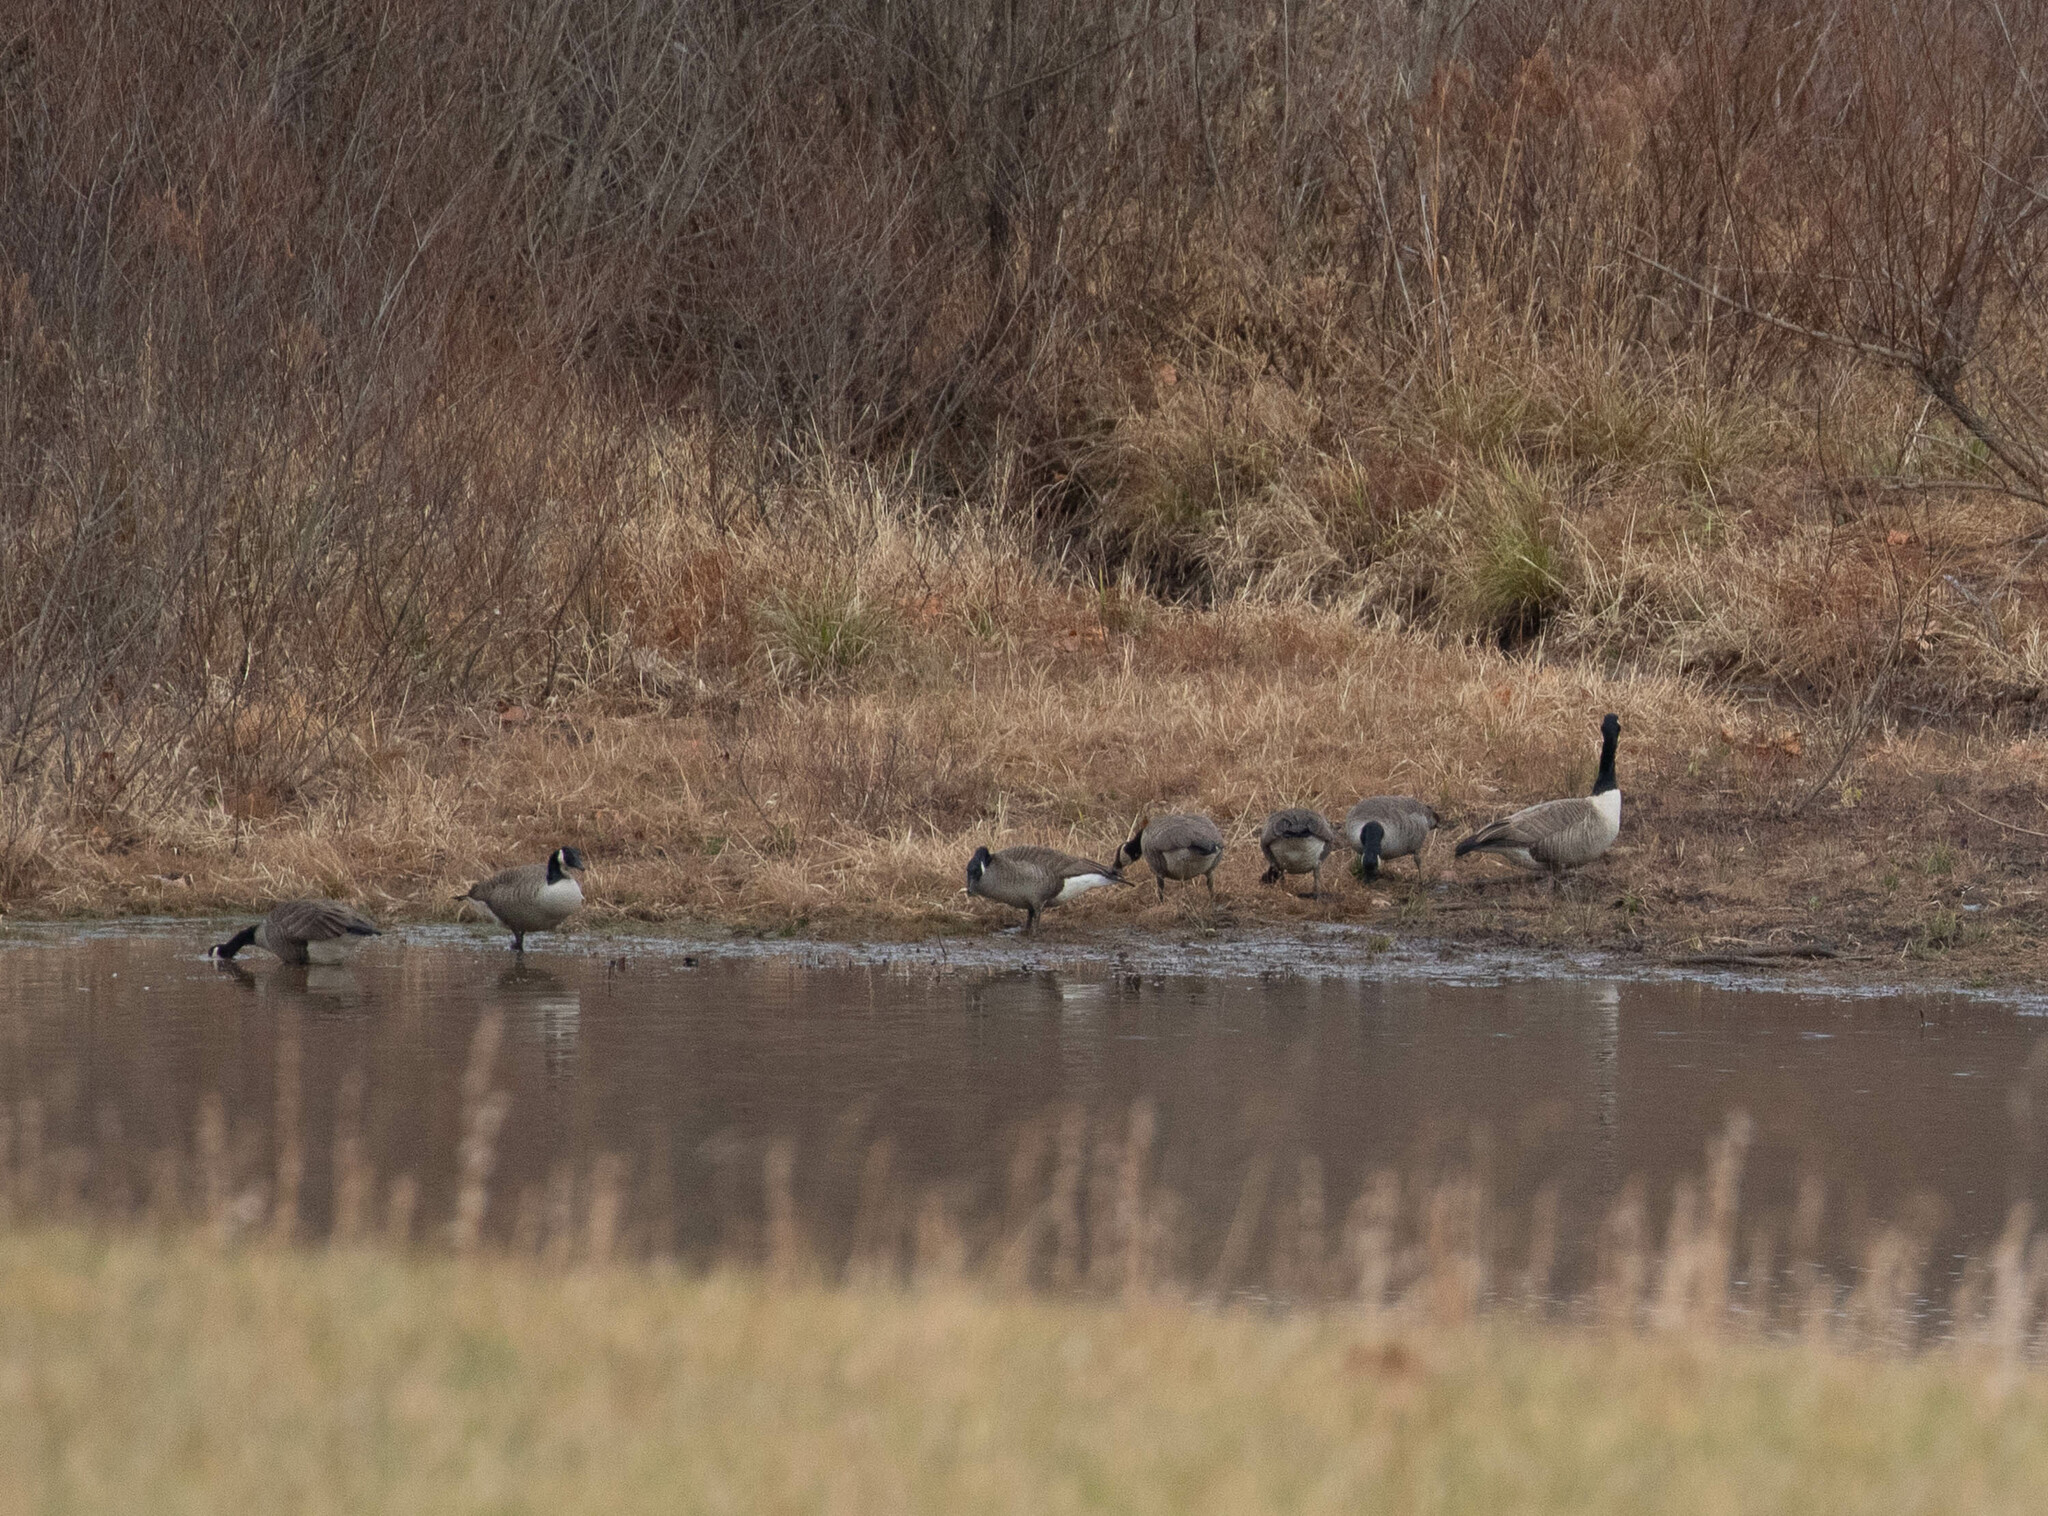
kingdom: Animalia
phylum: Chordata
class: Aves
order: Anseriformes
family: Anatidae
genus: Branta
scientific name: Branta canadensis
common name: Canada goose
